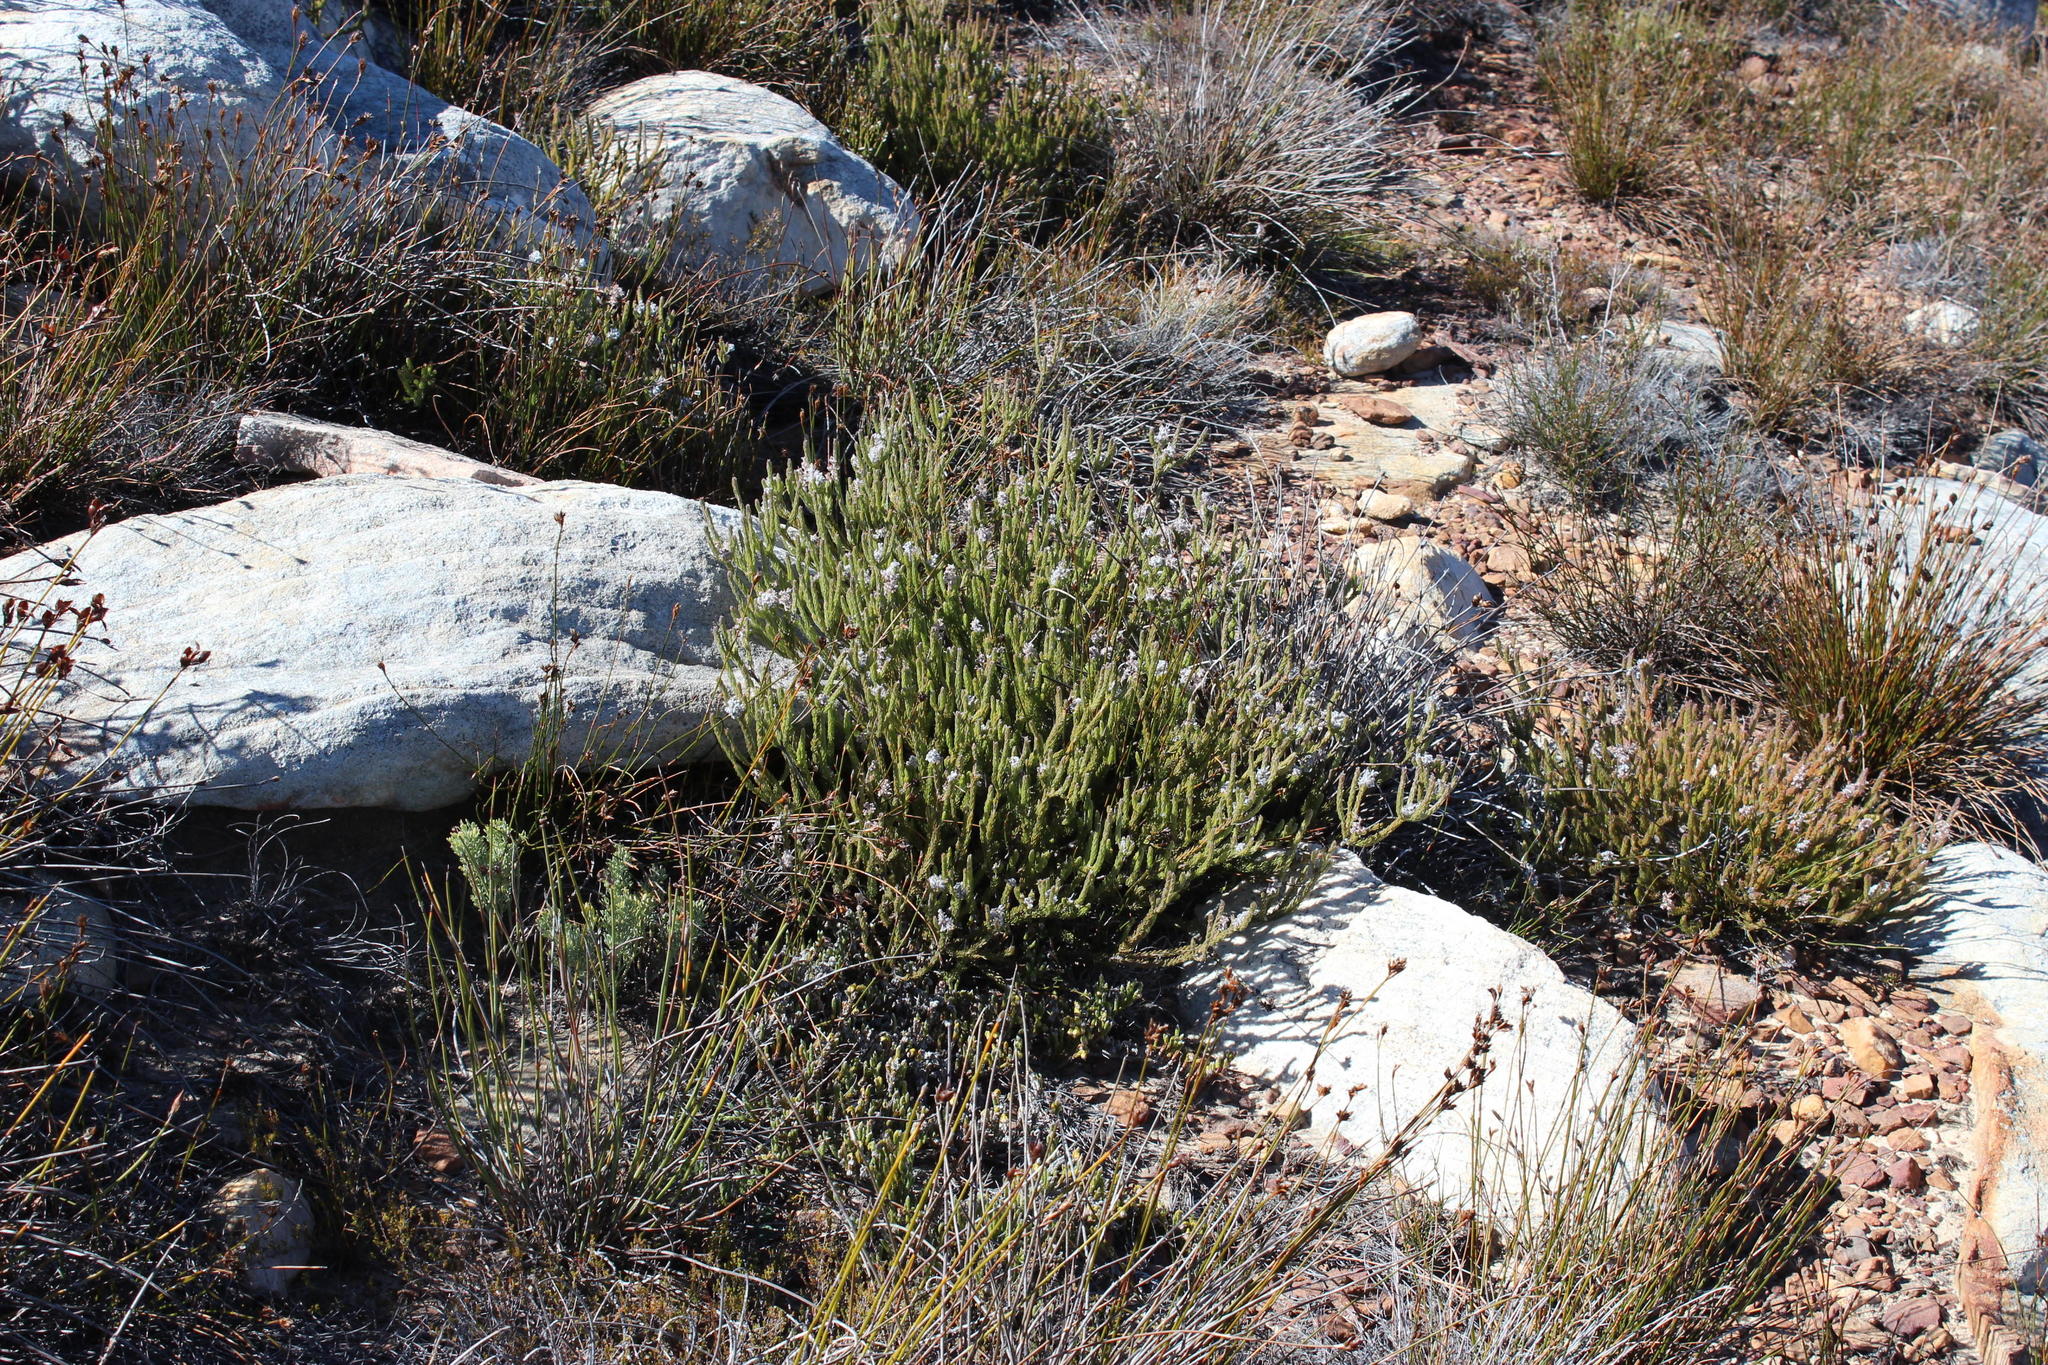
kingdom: Plantae
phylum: Tracheophyta
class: Magnoliopsida
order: Proteales
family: Proteaceae
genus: Spatalla
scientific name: Spatalla incurva
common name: Swan-head spoon
